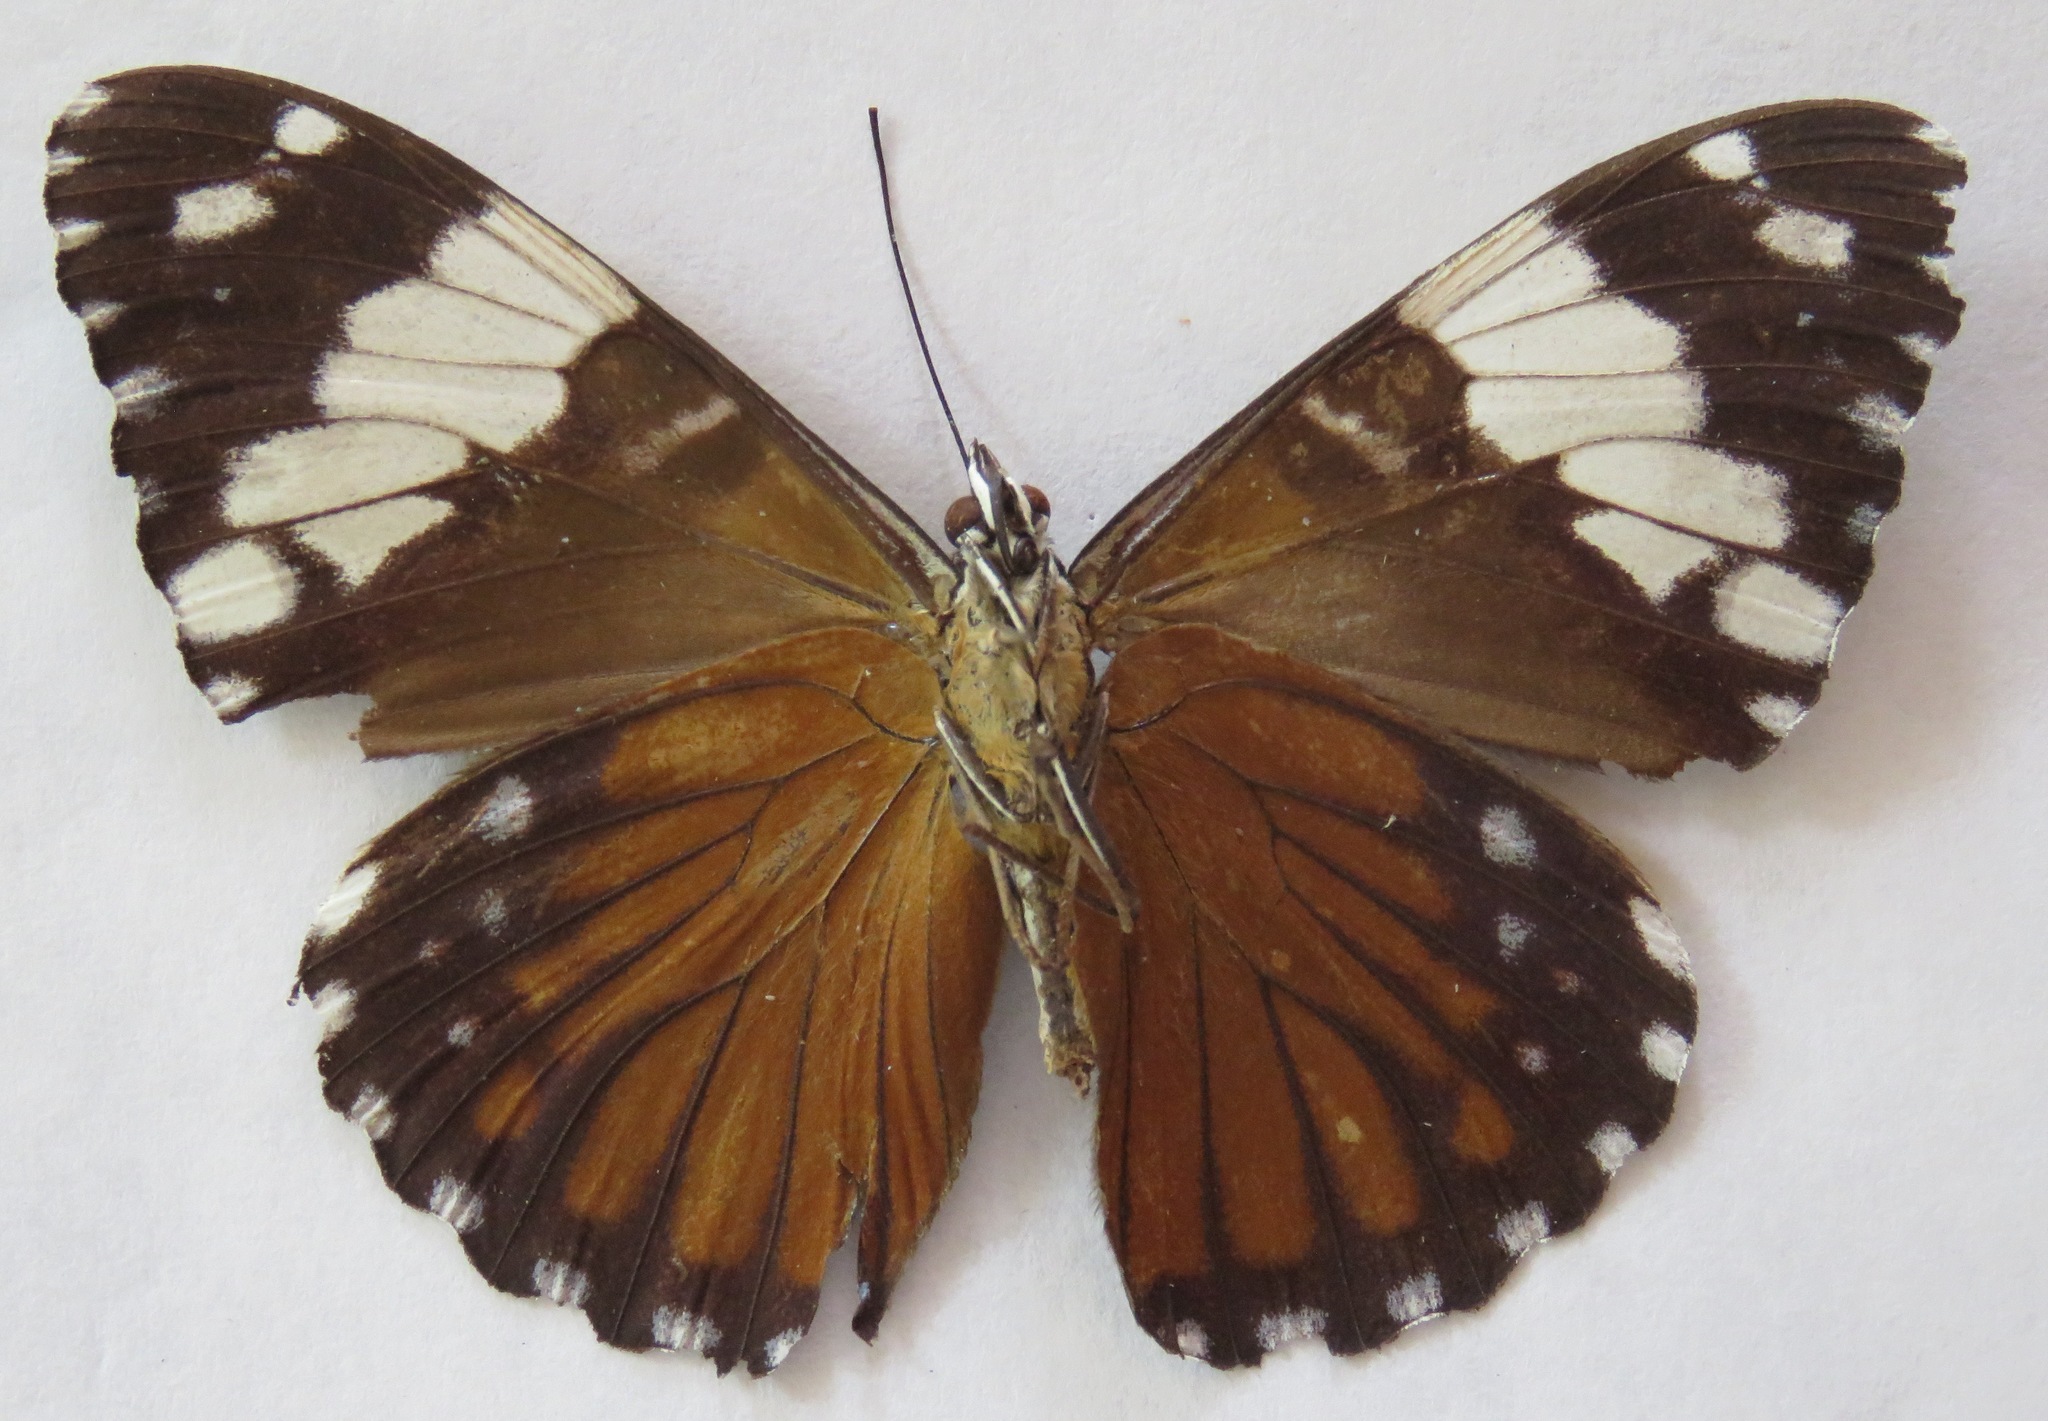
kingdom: Animalia
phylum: Arthropoda
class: Insecta
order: Lepidoptera
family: Nymphalidae
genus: Hamadryas
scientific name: Hamadryas amphinome
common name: Red cracker
